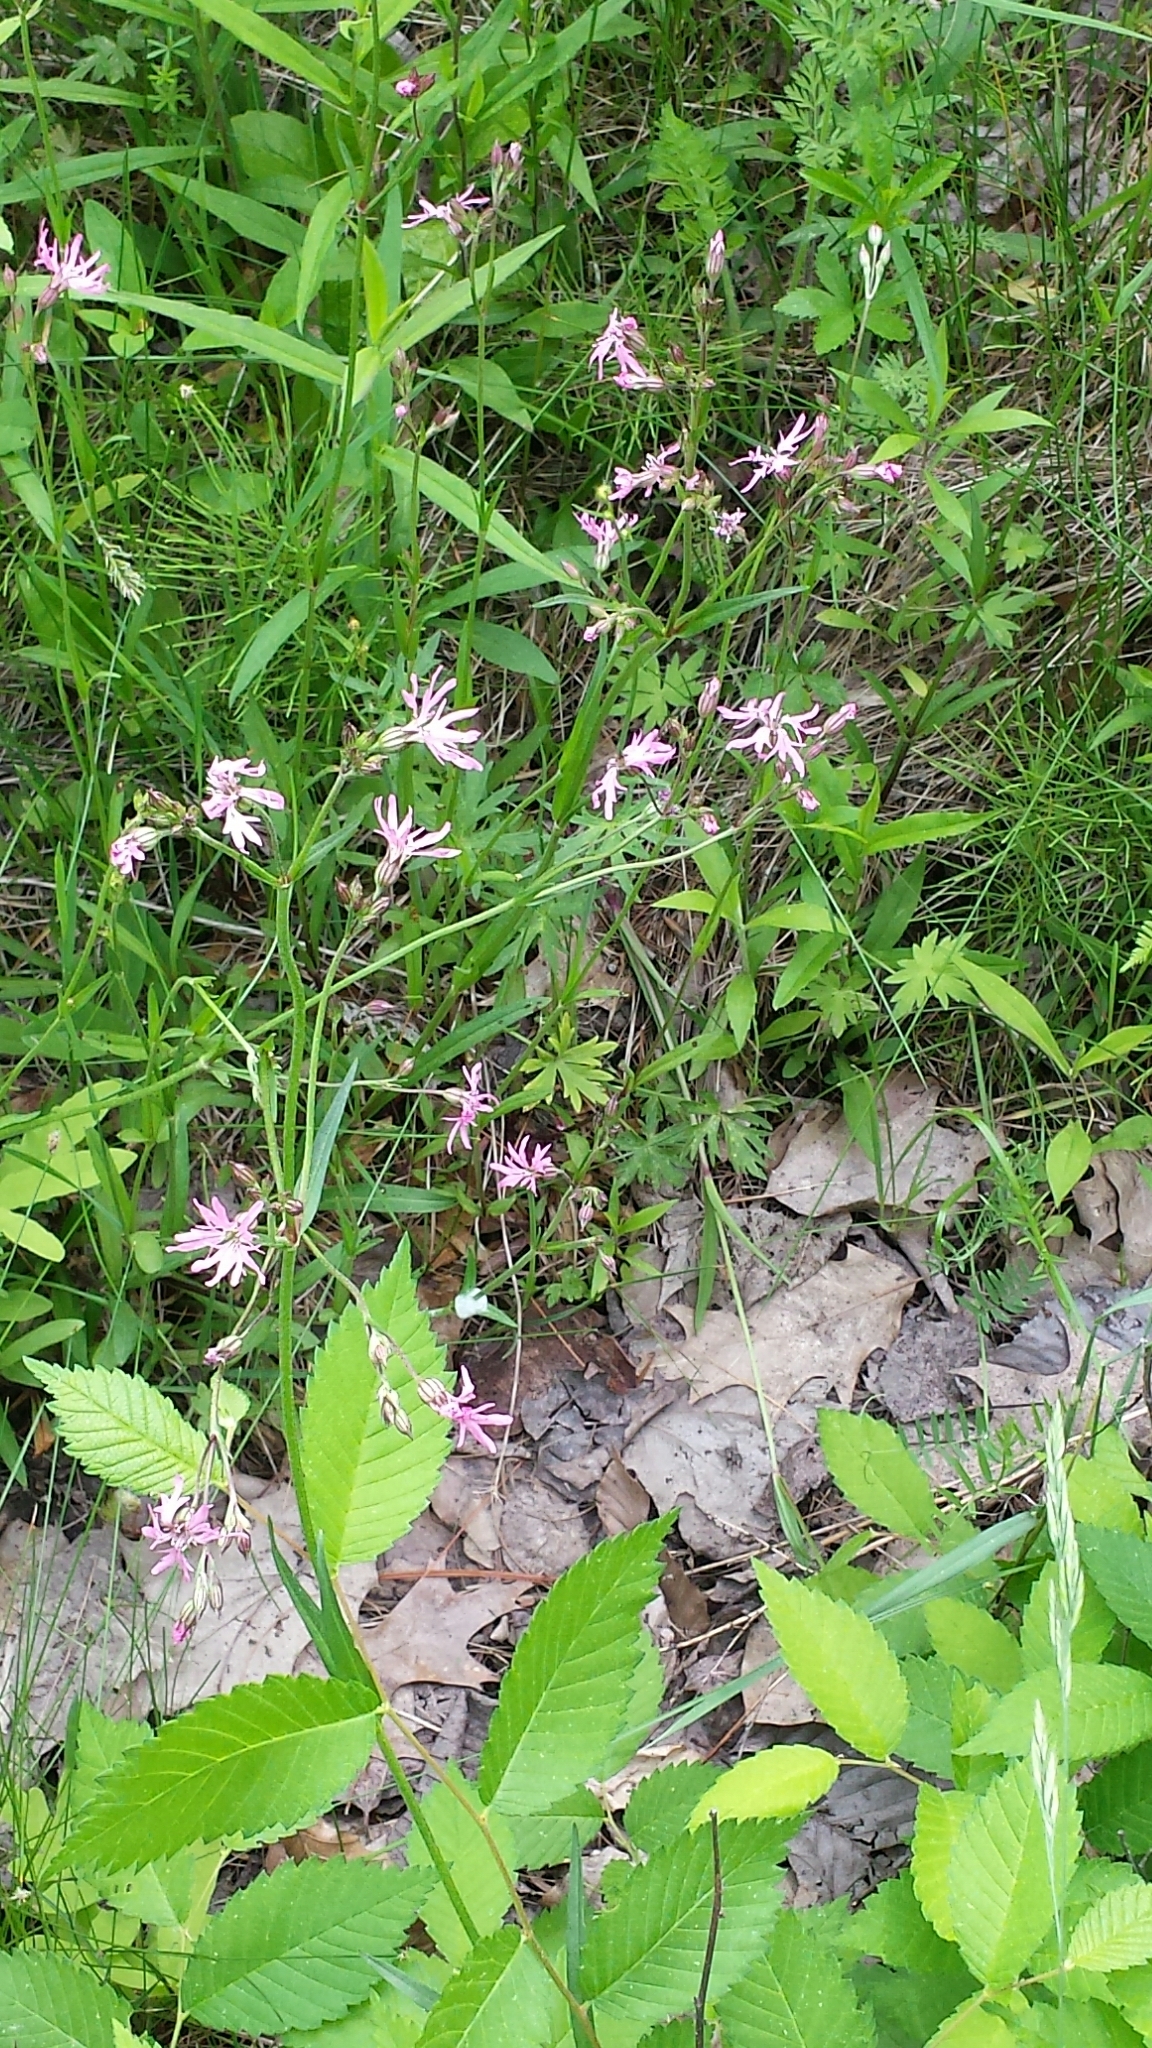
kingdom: Plantae
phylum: Tracheophyta
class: Magnoliopsida
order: Caryophyllales
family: Caryophyllaceae
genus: Silene
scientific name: Silene flos-cuculi
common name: Ragged-robin
